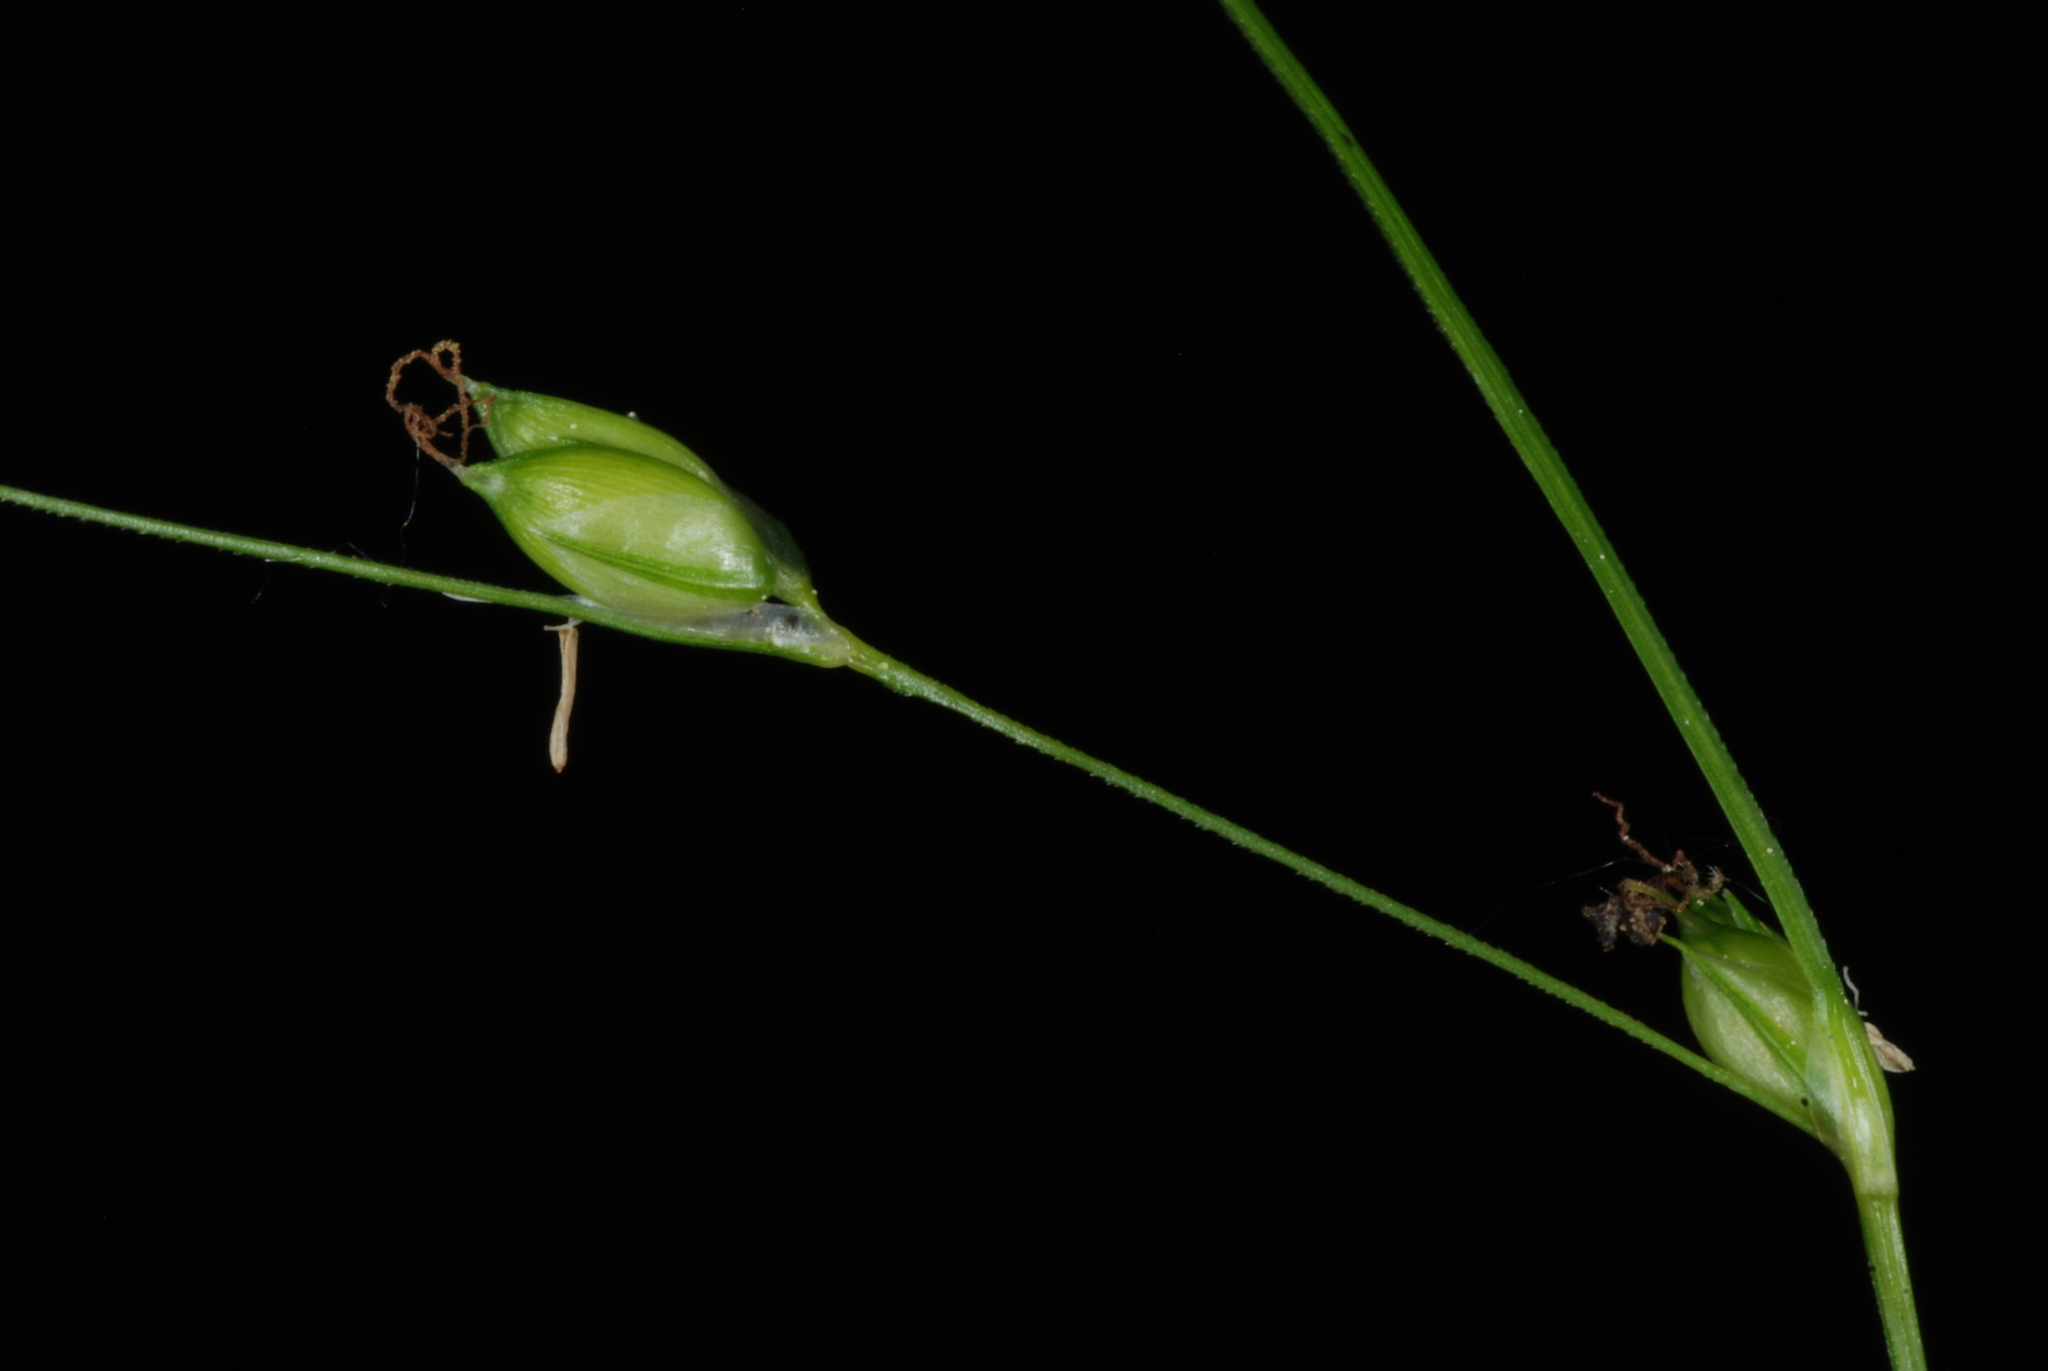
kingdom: Plantae
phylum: Tracheophyta
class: Liliopsida
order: Poales
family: Cyperaceae
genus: Carex
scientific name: Carex trisperma
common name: Three-seeded sedge
